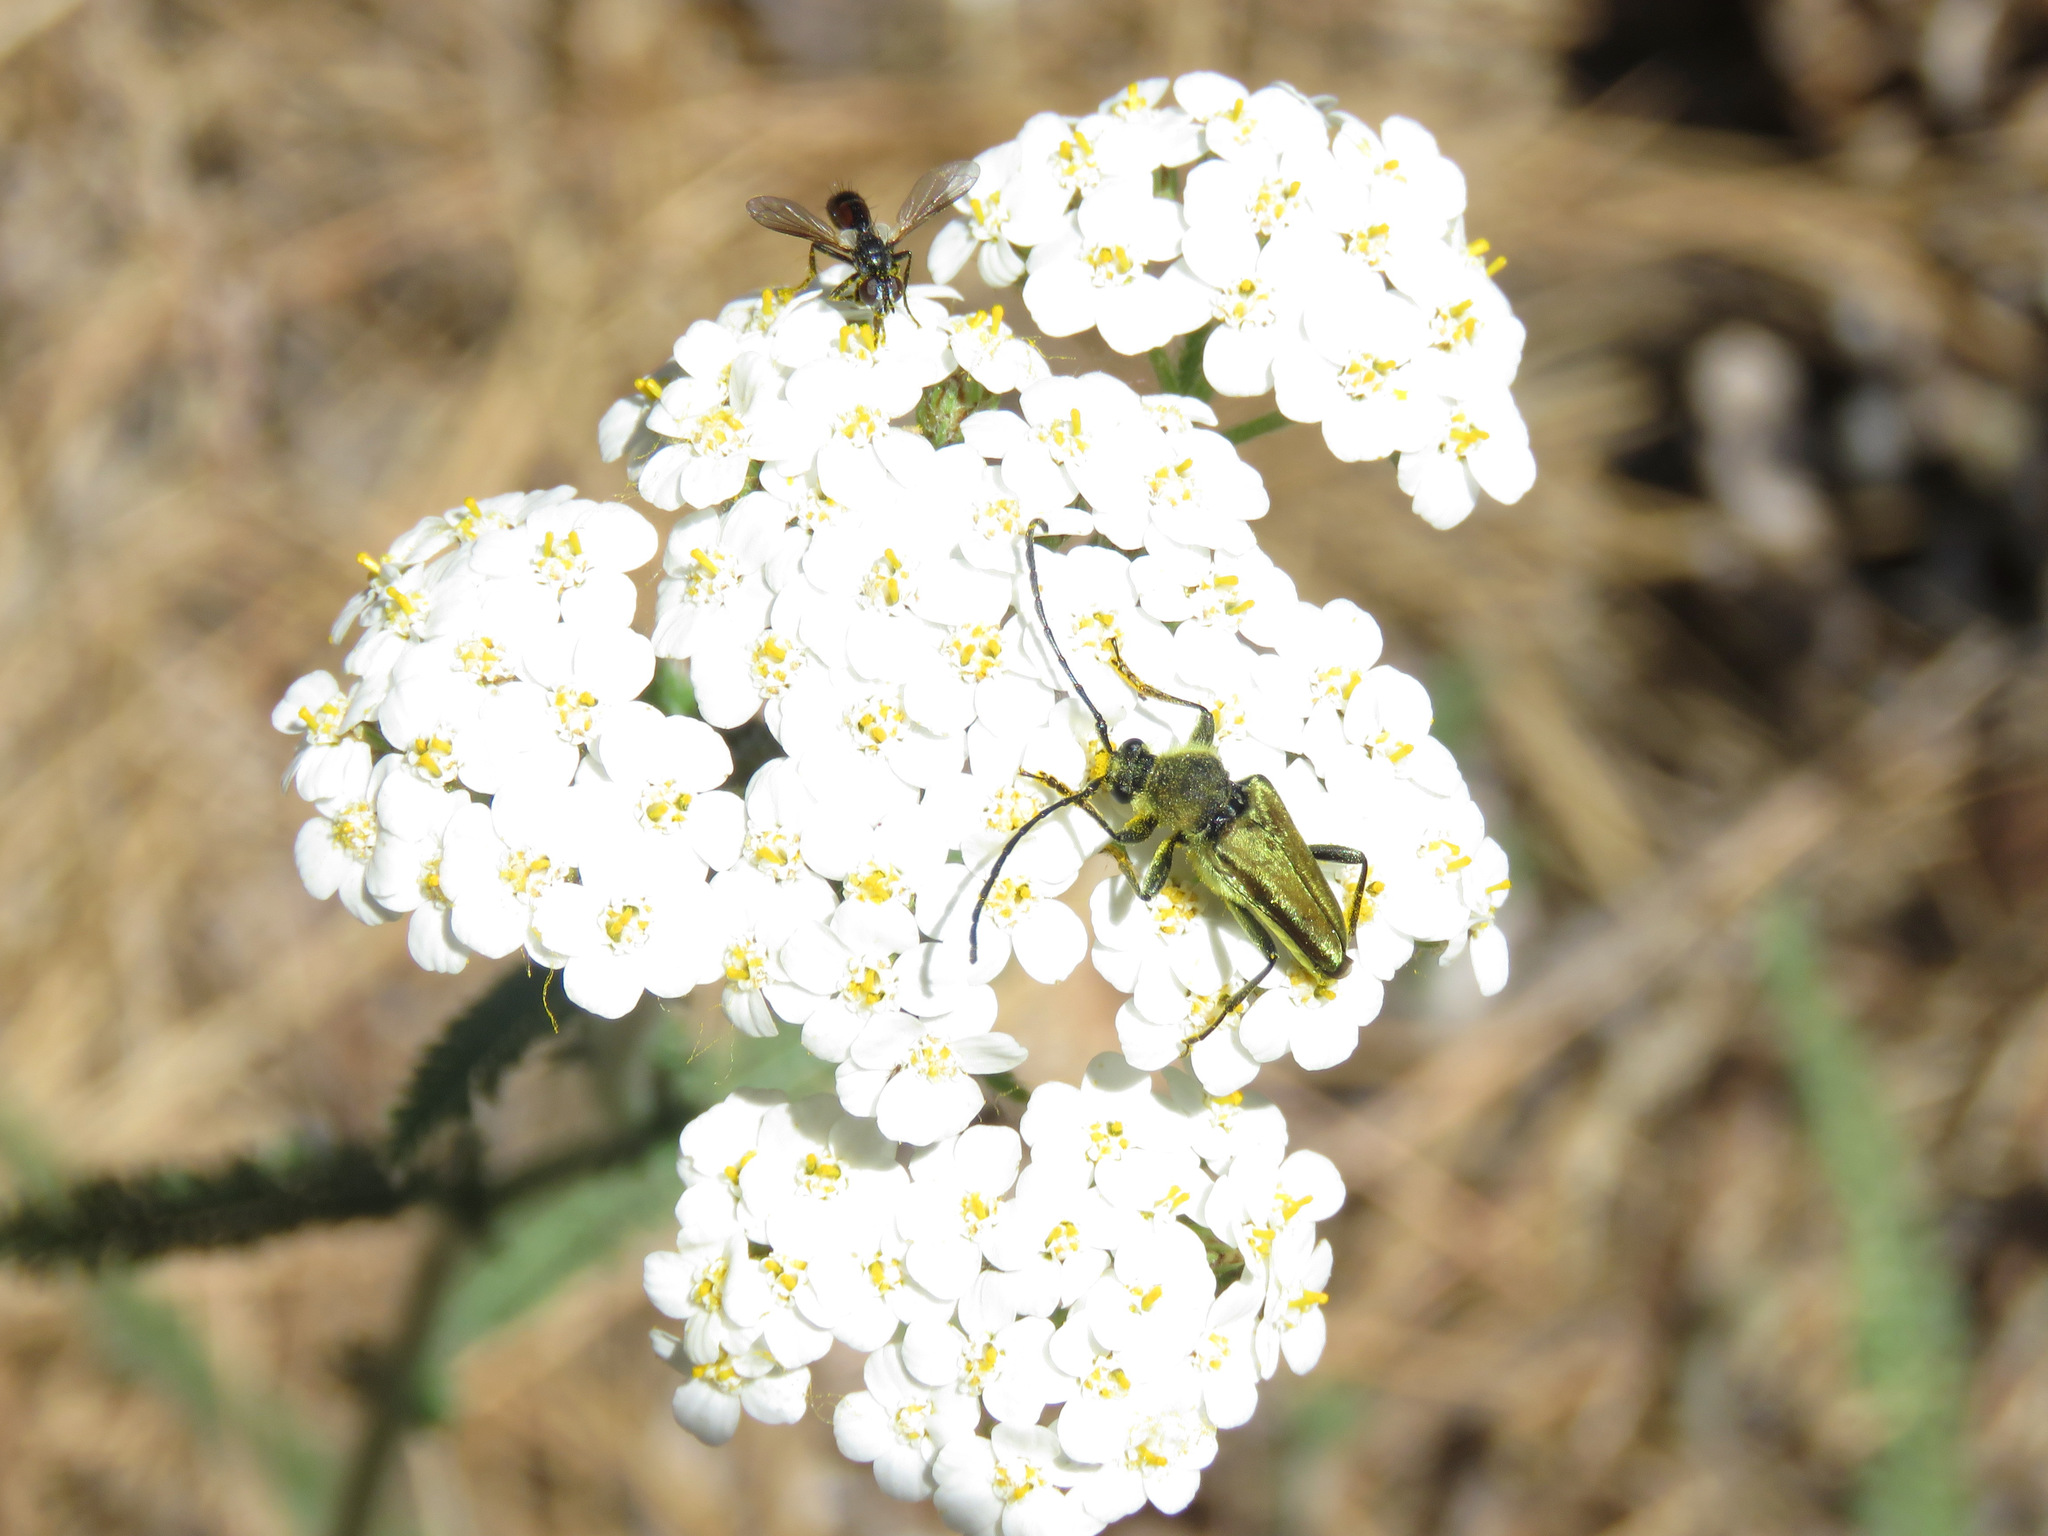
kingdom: Animalia
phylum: Arthropoda
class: Insecta
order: Coleoptera
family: Cerambycidae
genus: Cosmosalia
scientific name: Cosmosalia chrysocoma
